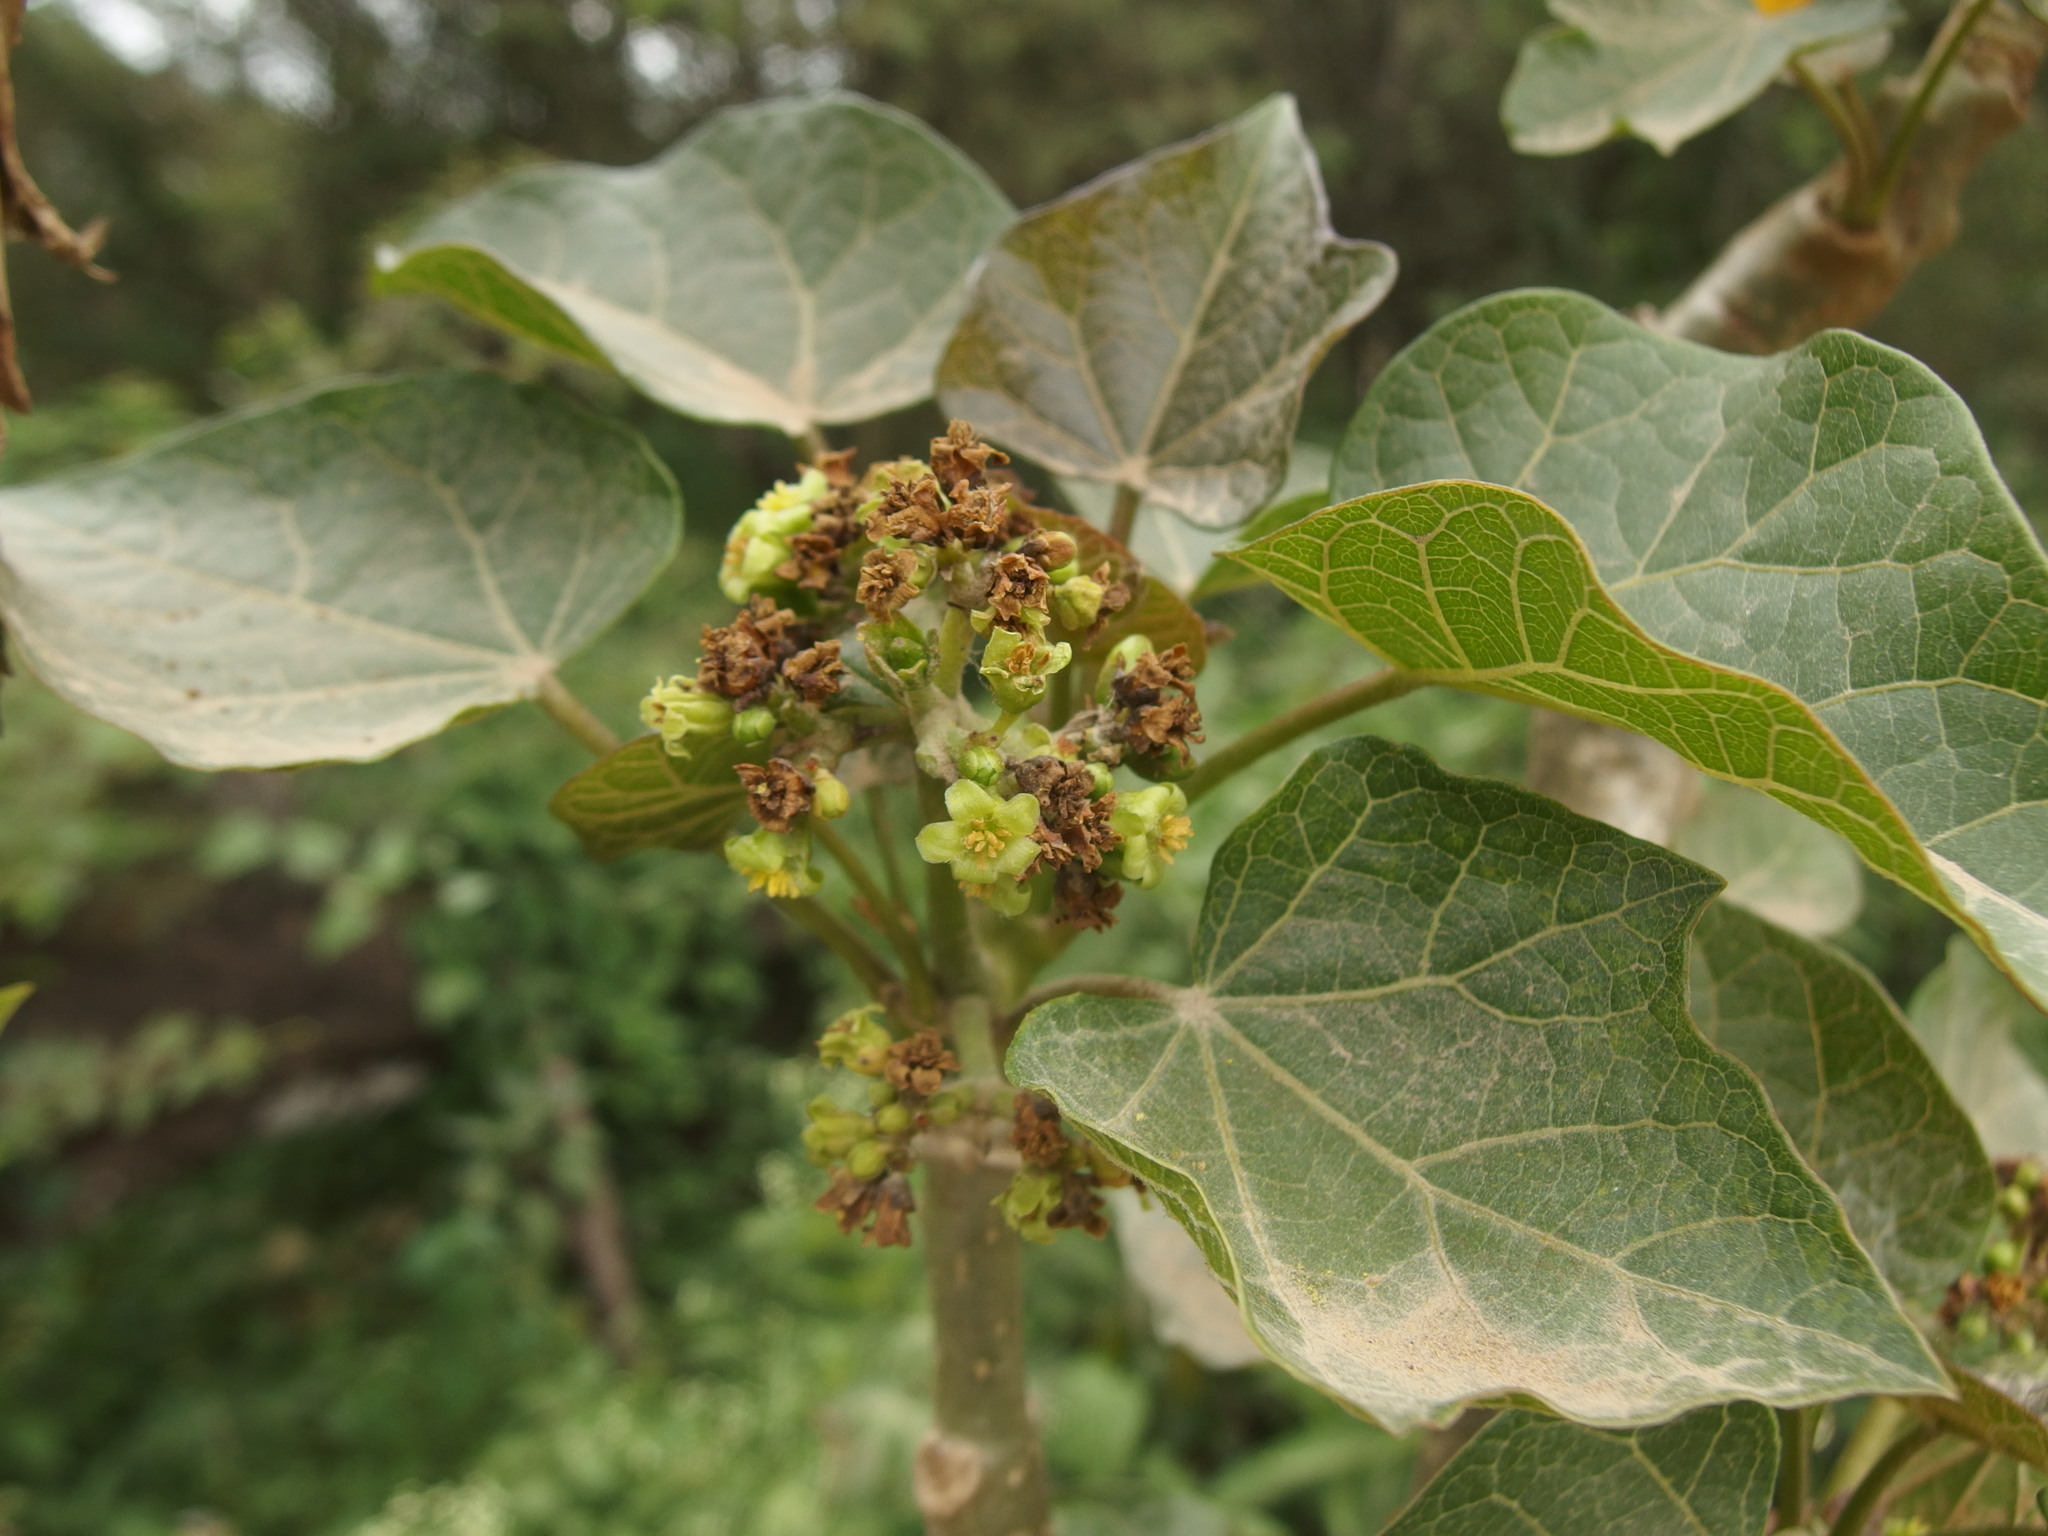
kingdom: Plantae
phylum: Tracheophyta
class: Magnoliopsida
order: Malpighiales
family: Euphorbiaceae
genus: Jatropha
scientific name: Jatropha curcas
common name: Barbados nut
